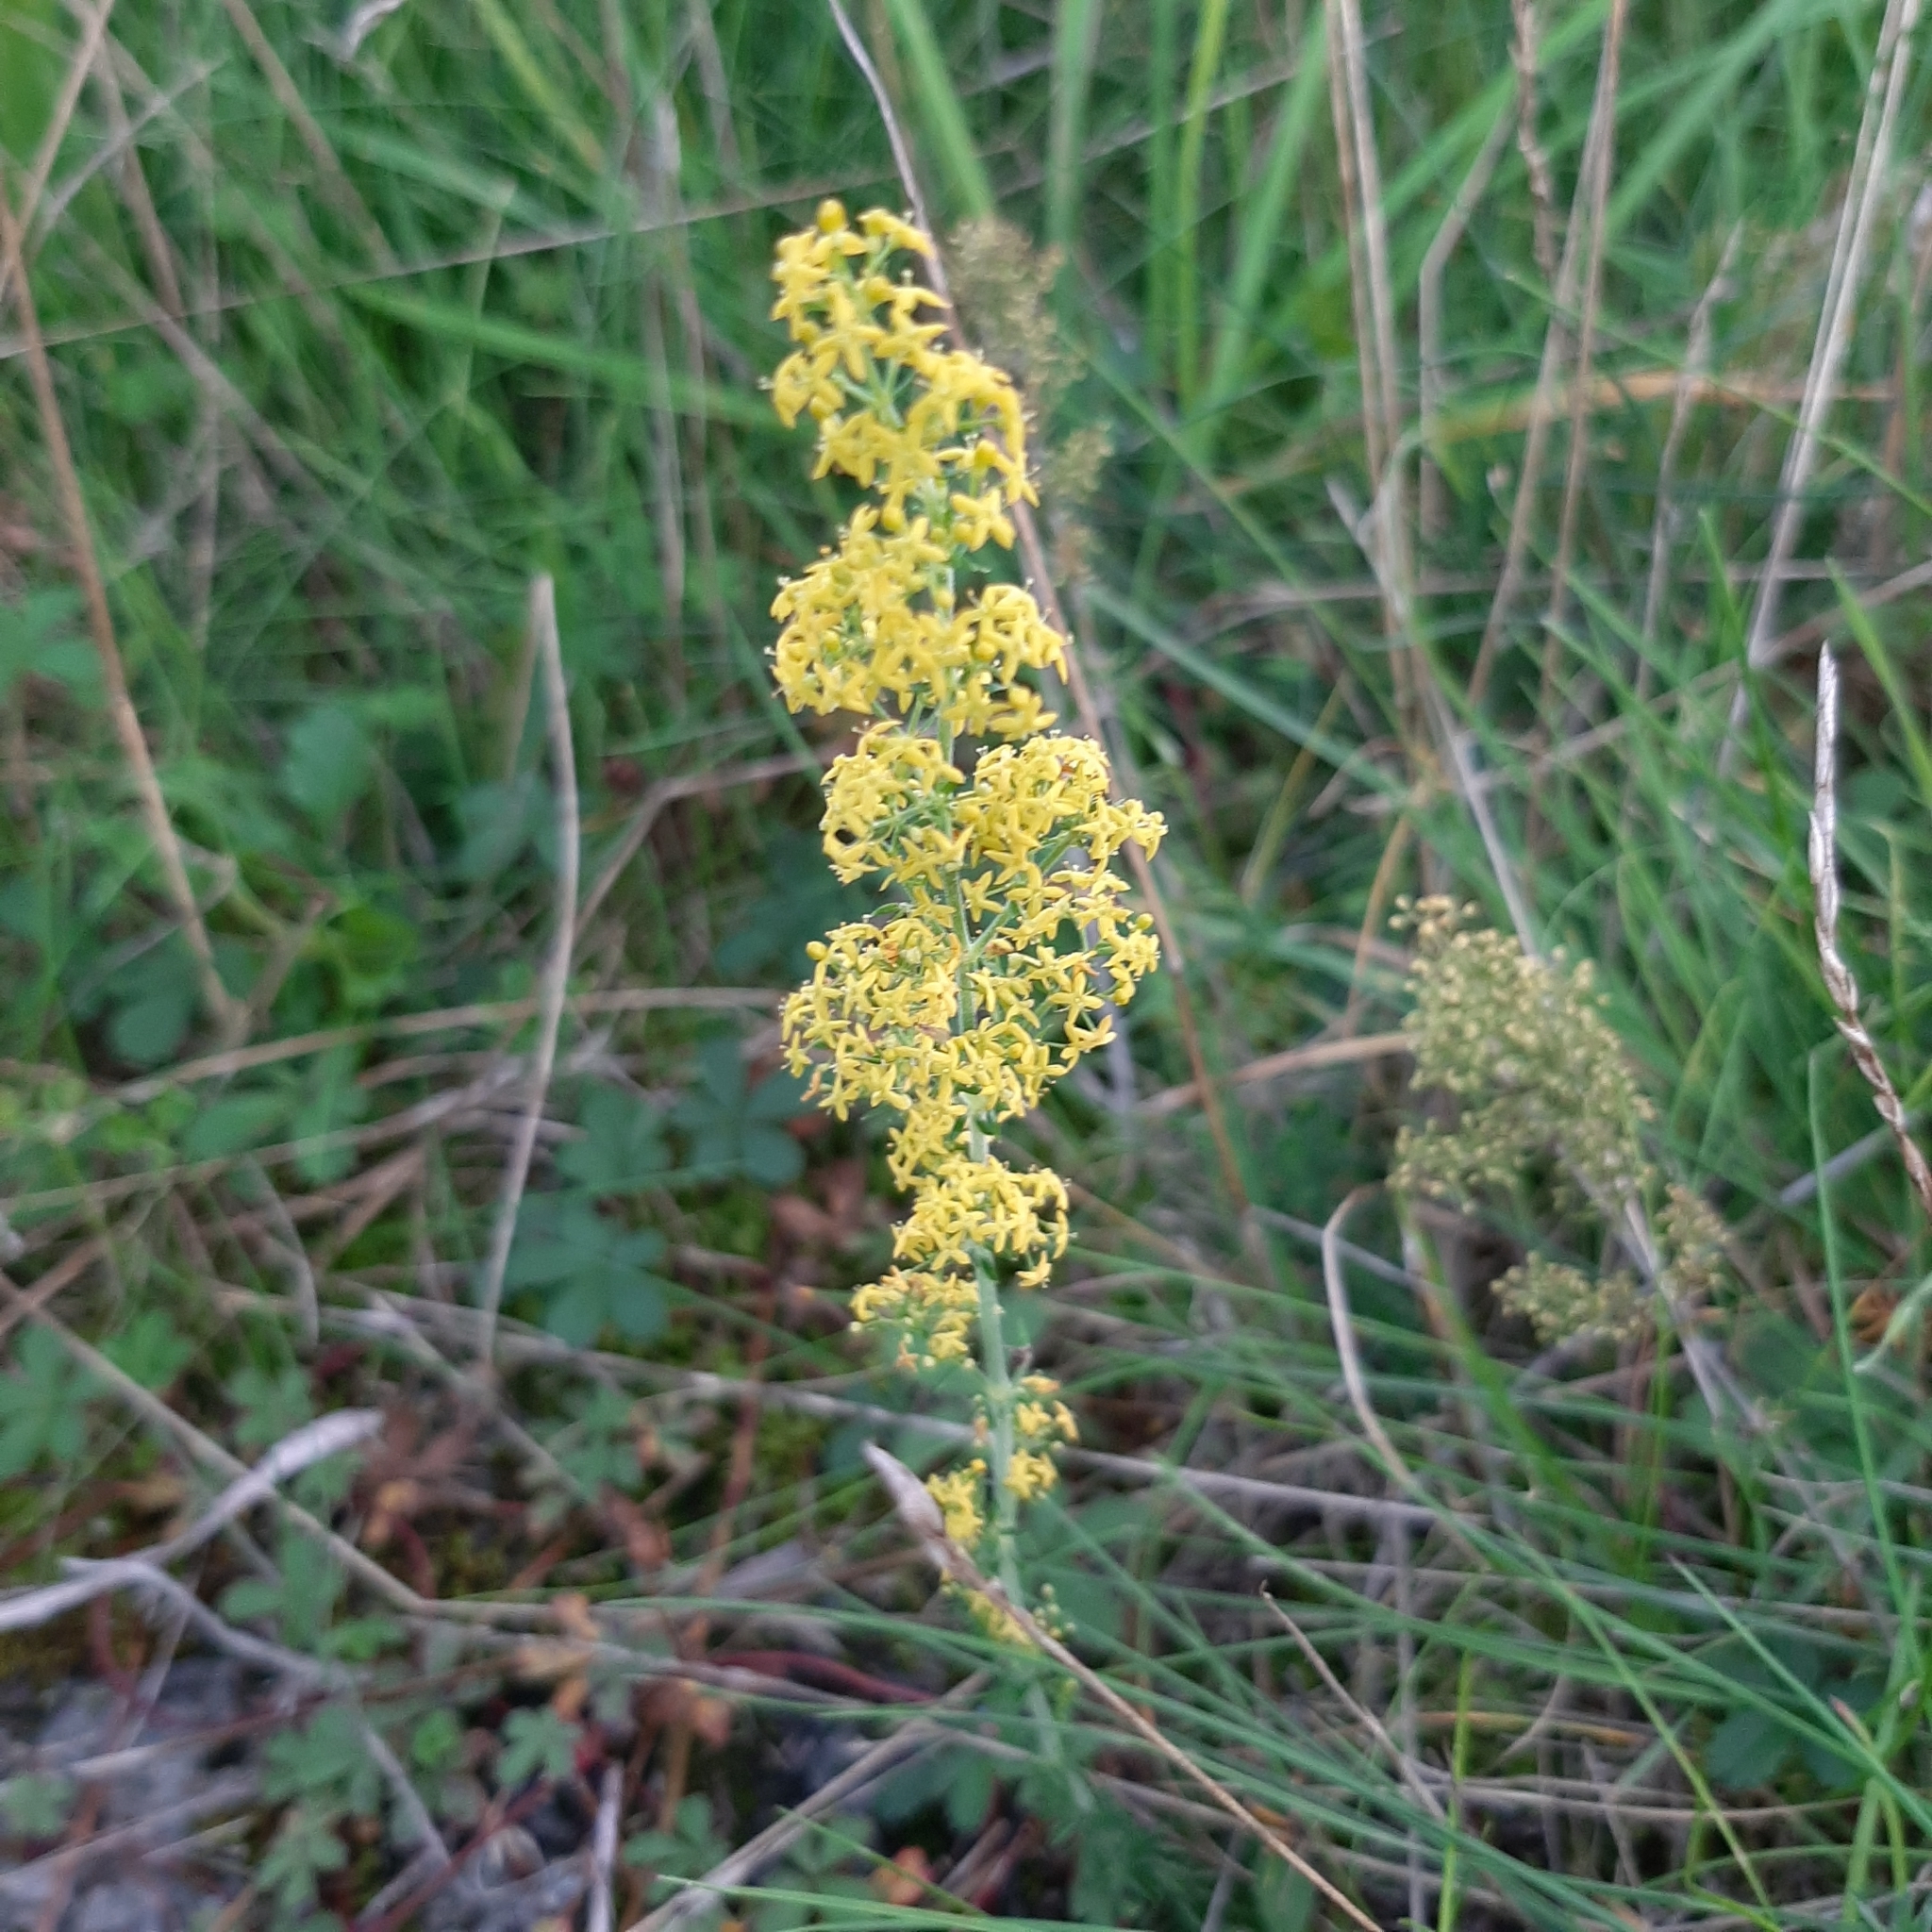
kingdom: Plantae
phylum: Tracheophyta
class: Magnoliopsida
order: Gentianales
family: Rubiaceae
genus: Galium
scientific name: Galium verum
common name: Lady's bedstraw
